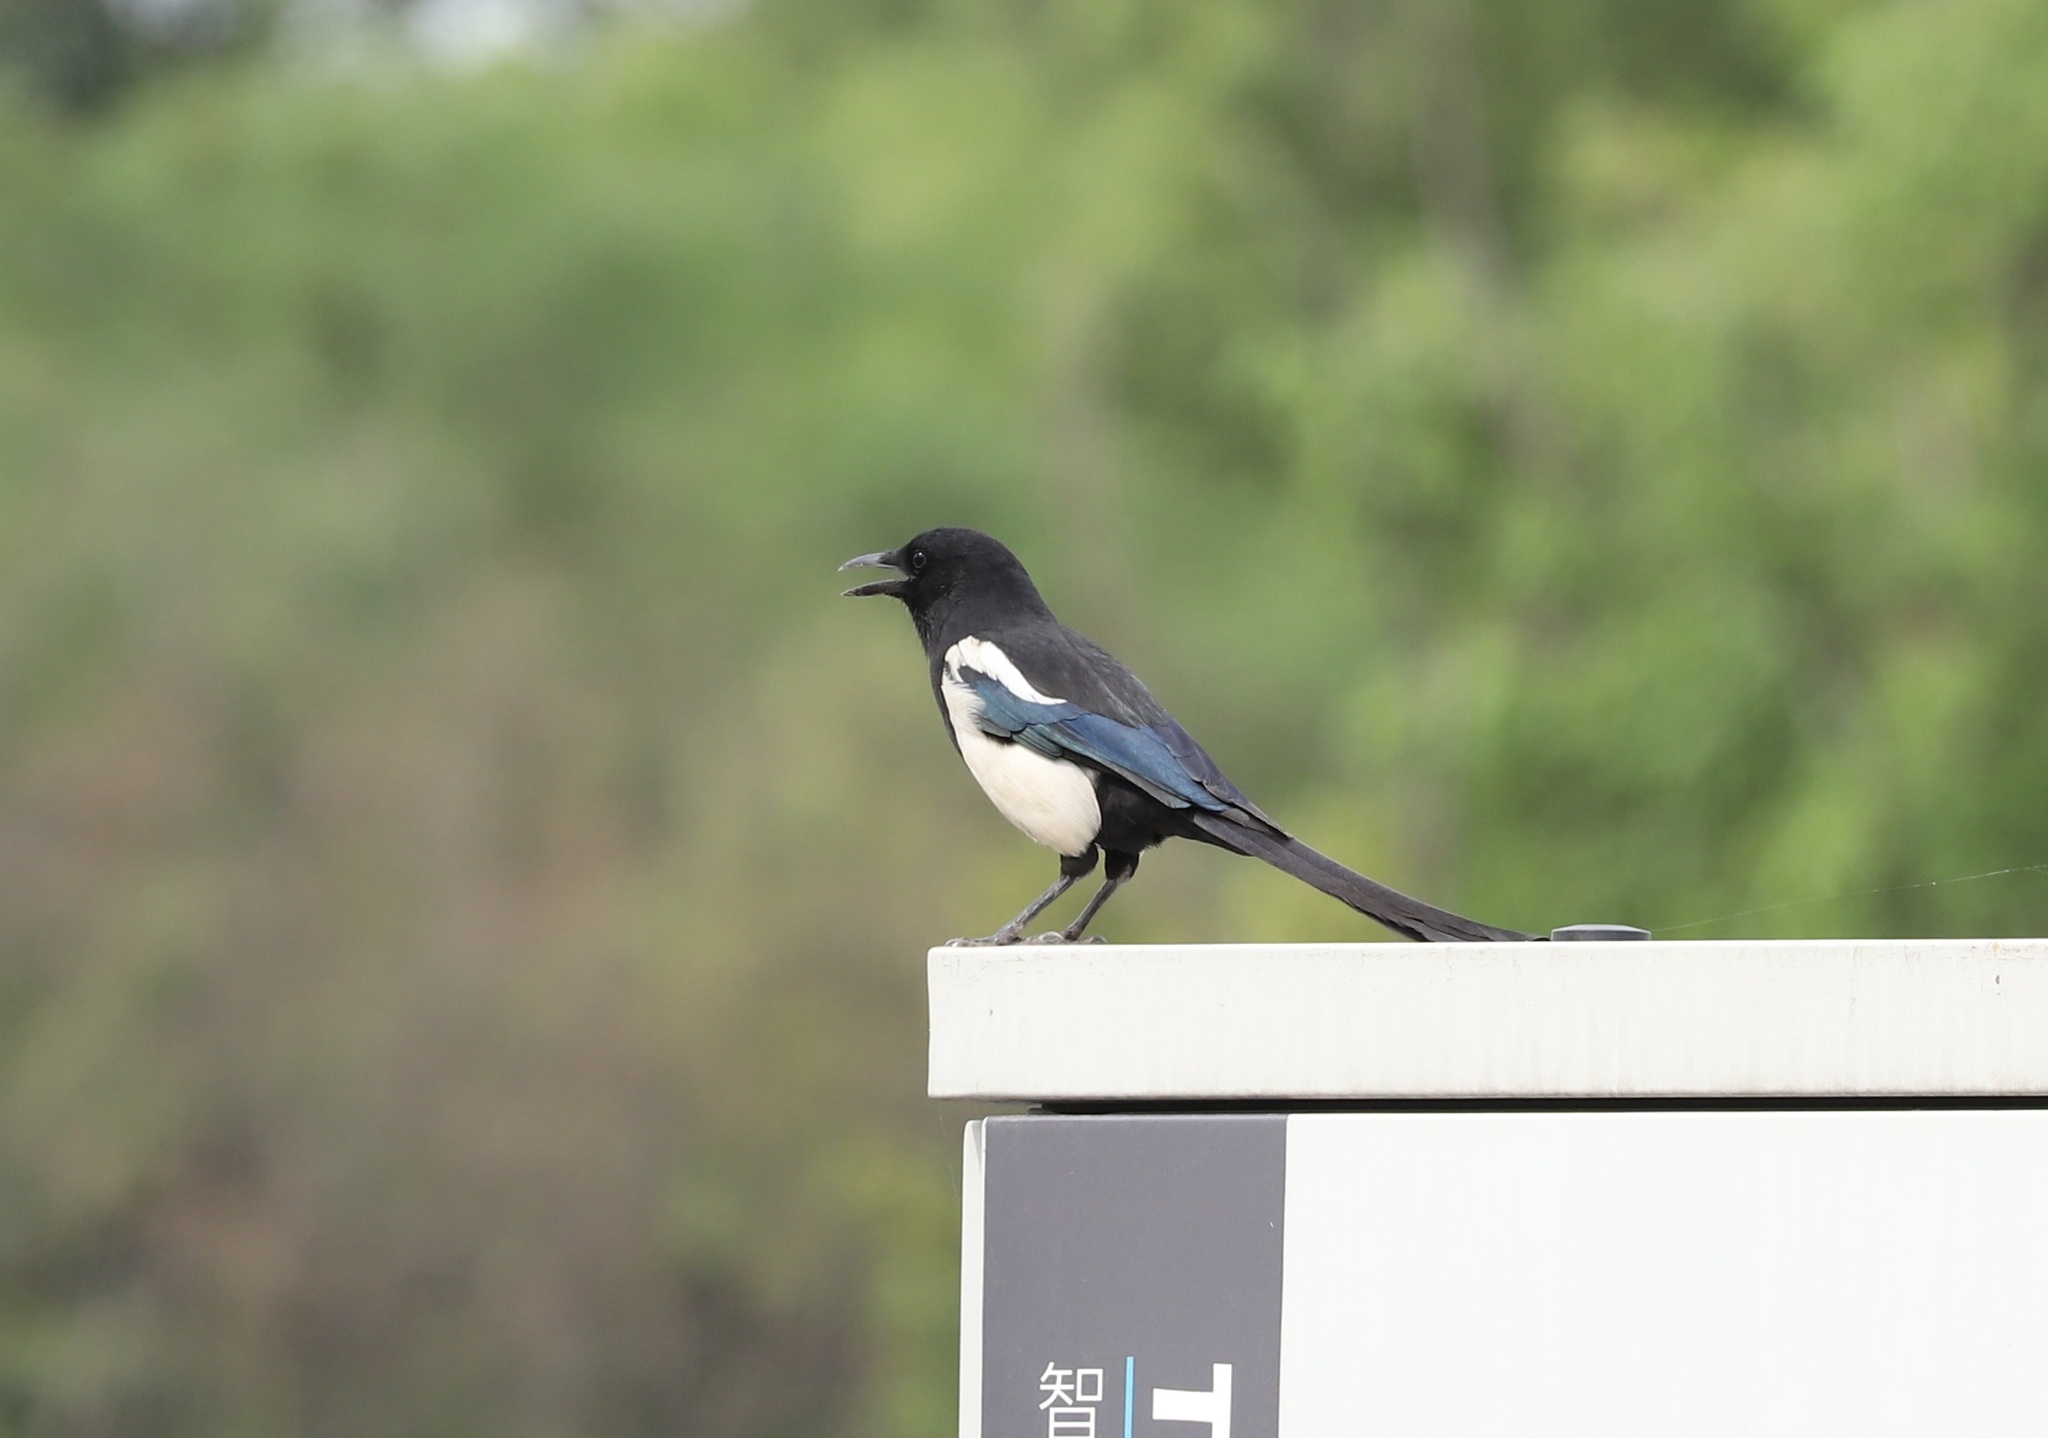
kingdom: Animalia
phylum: Chordata
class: Aves
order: Passeriformes
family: Corvidae
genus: Pica
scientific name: Pica serica
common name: Oriental magpie
